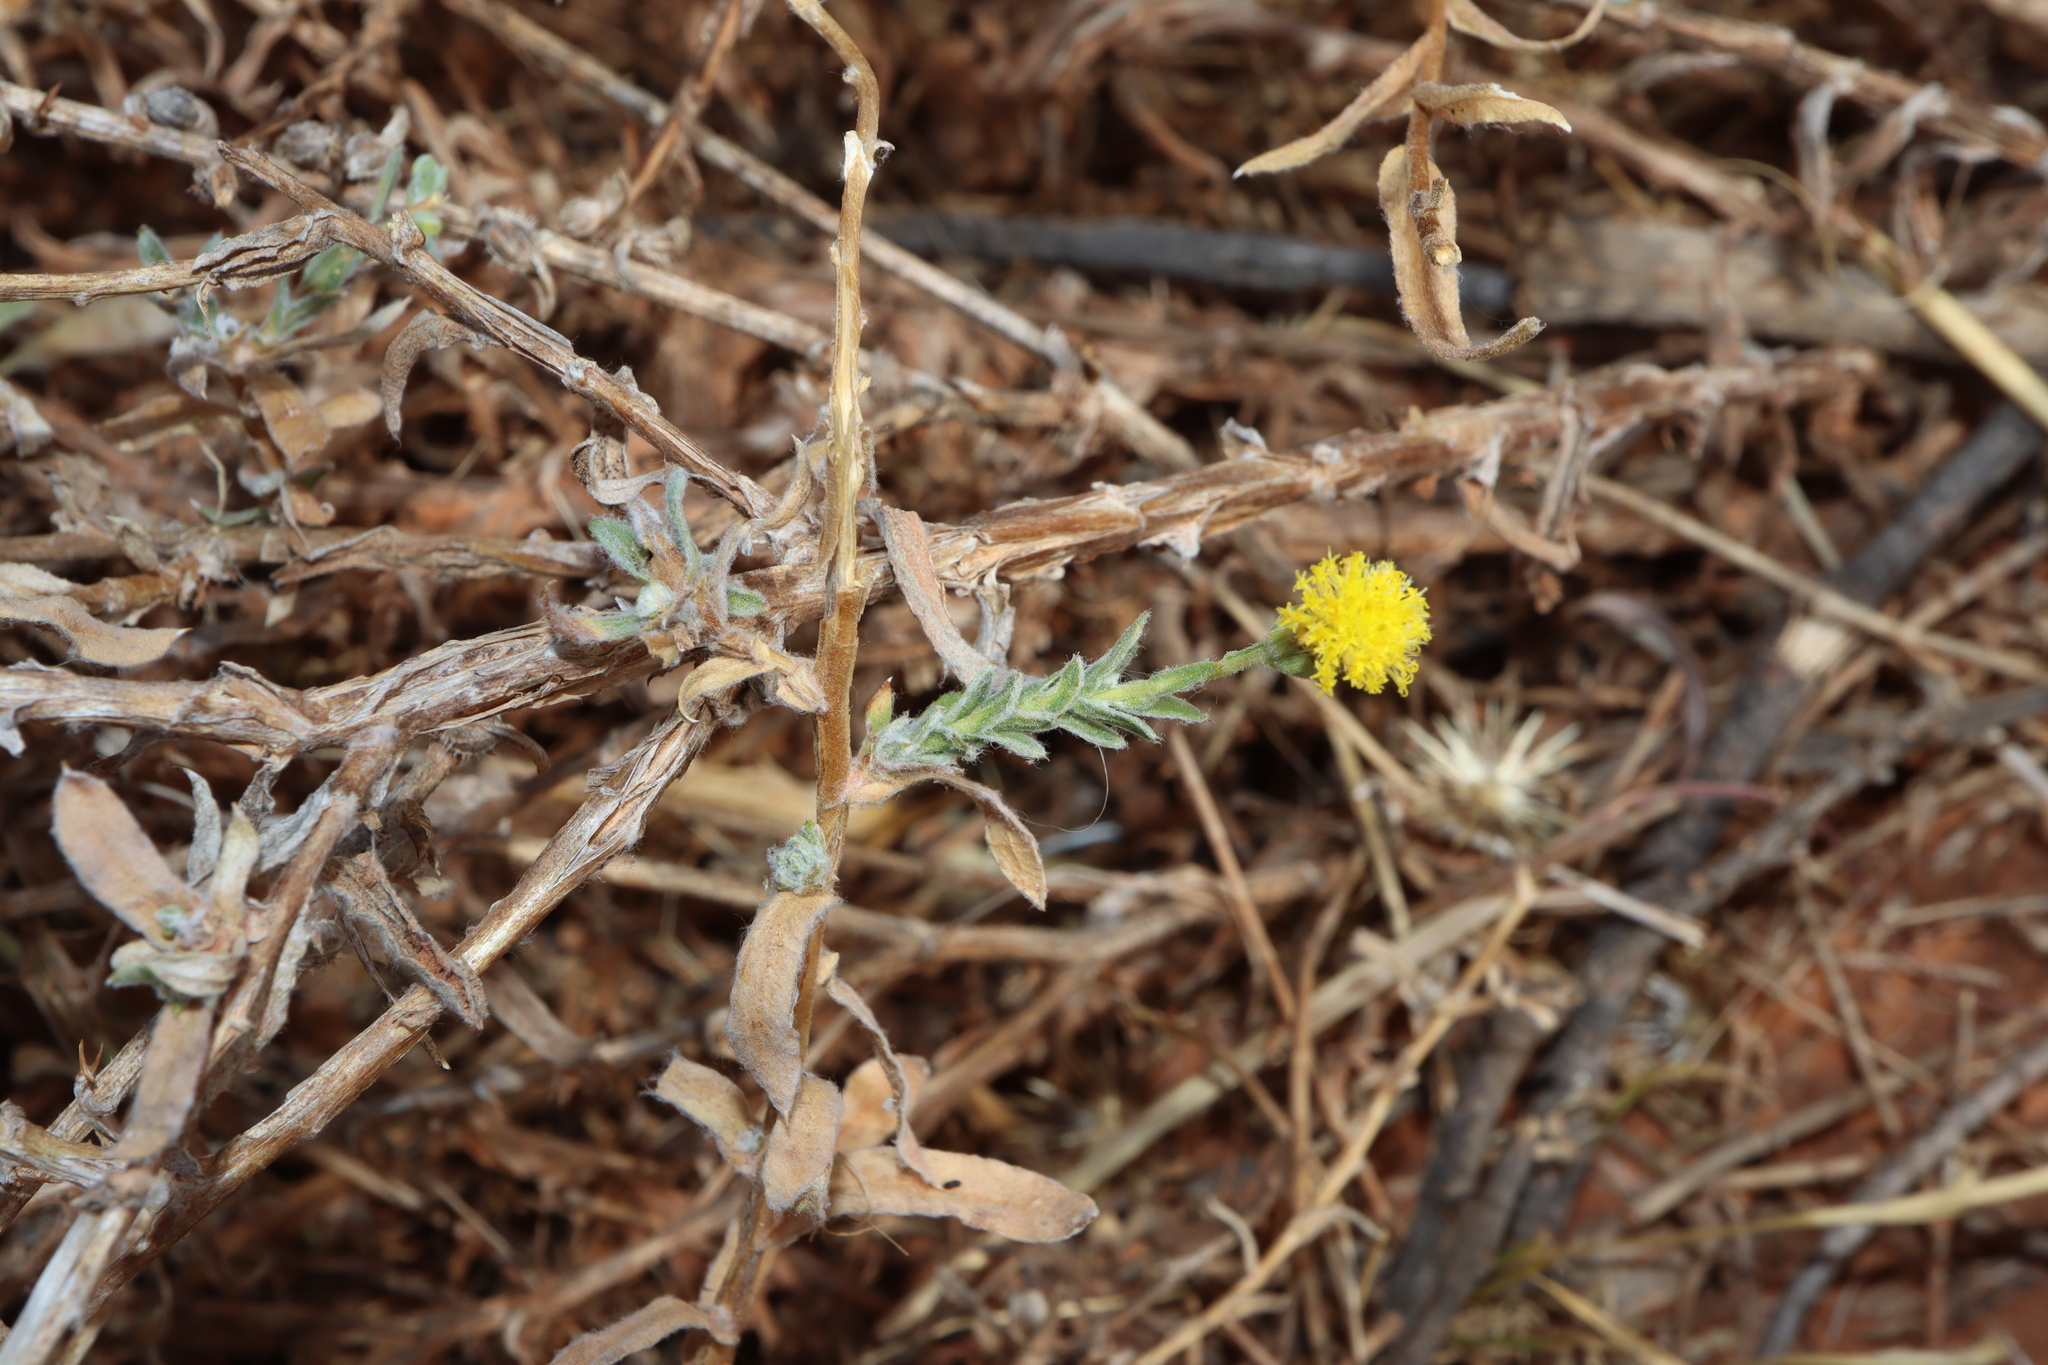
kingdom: Plantae
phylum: Tracheophyta
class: Magnoliopsida
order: Asterales
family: Asteraceae
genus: Leiocarpa
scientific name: Leiocarpa tomentosa
